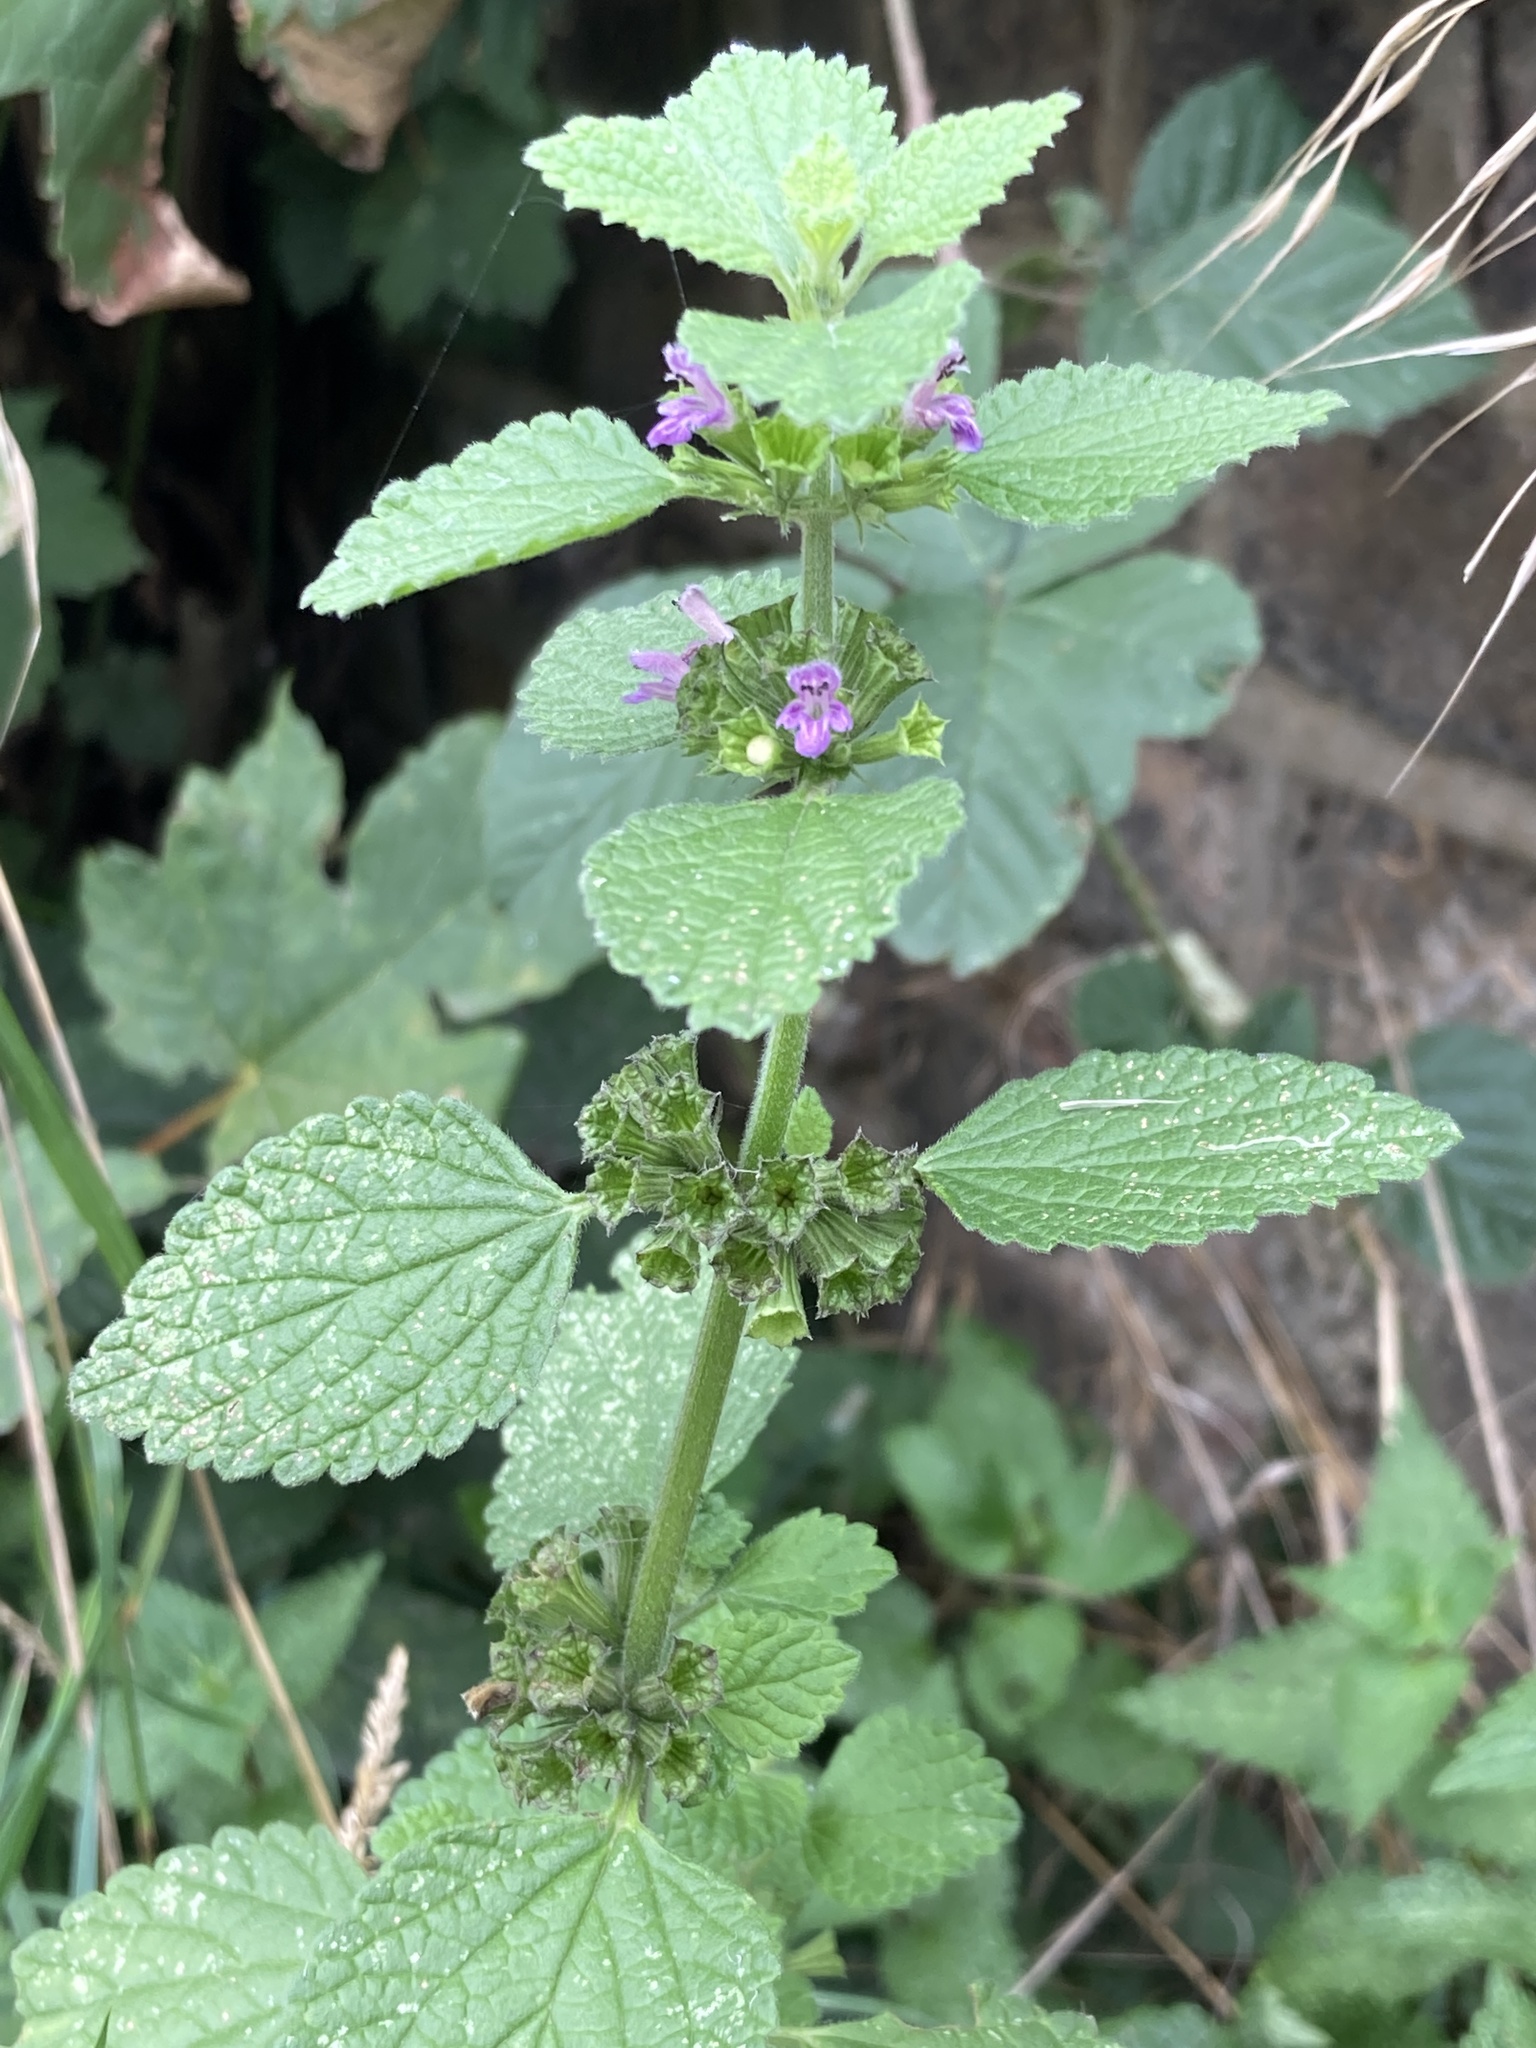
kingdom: Plantae
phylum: Tracheophyta
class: Magnoliopsida
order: Lamiales
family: Lamiaceae
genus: Ballota
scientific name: Ballota nigra
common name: Black horehound
